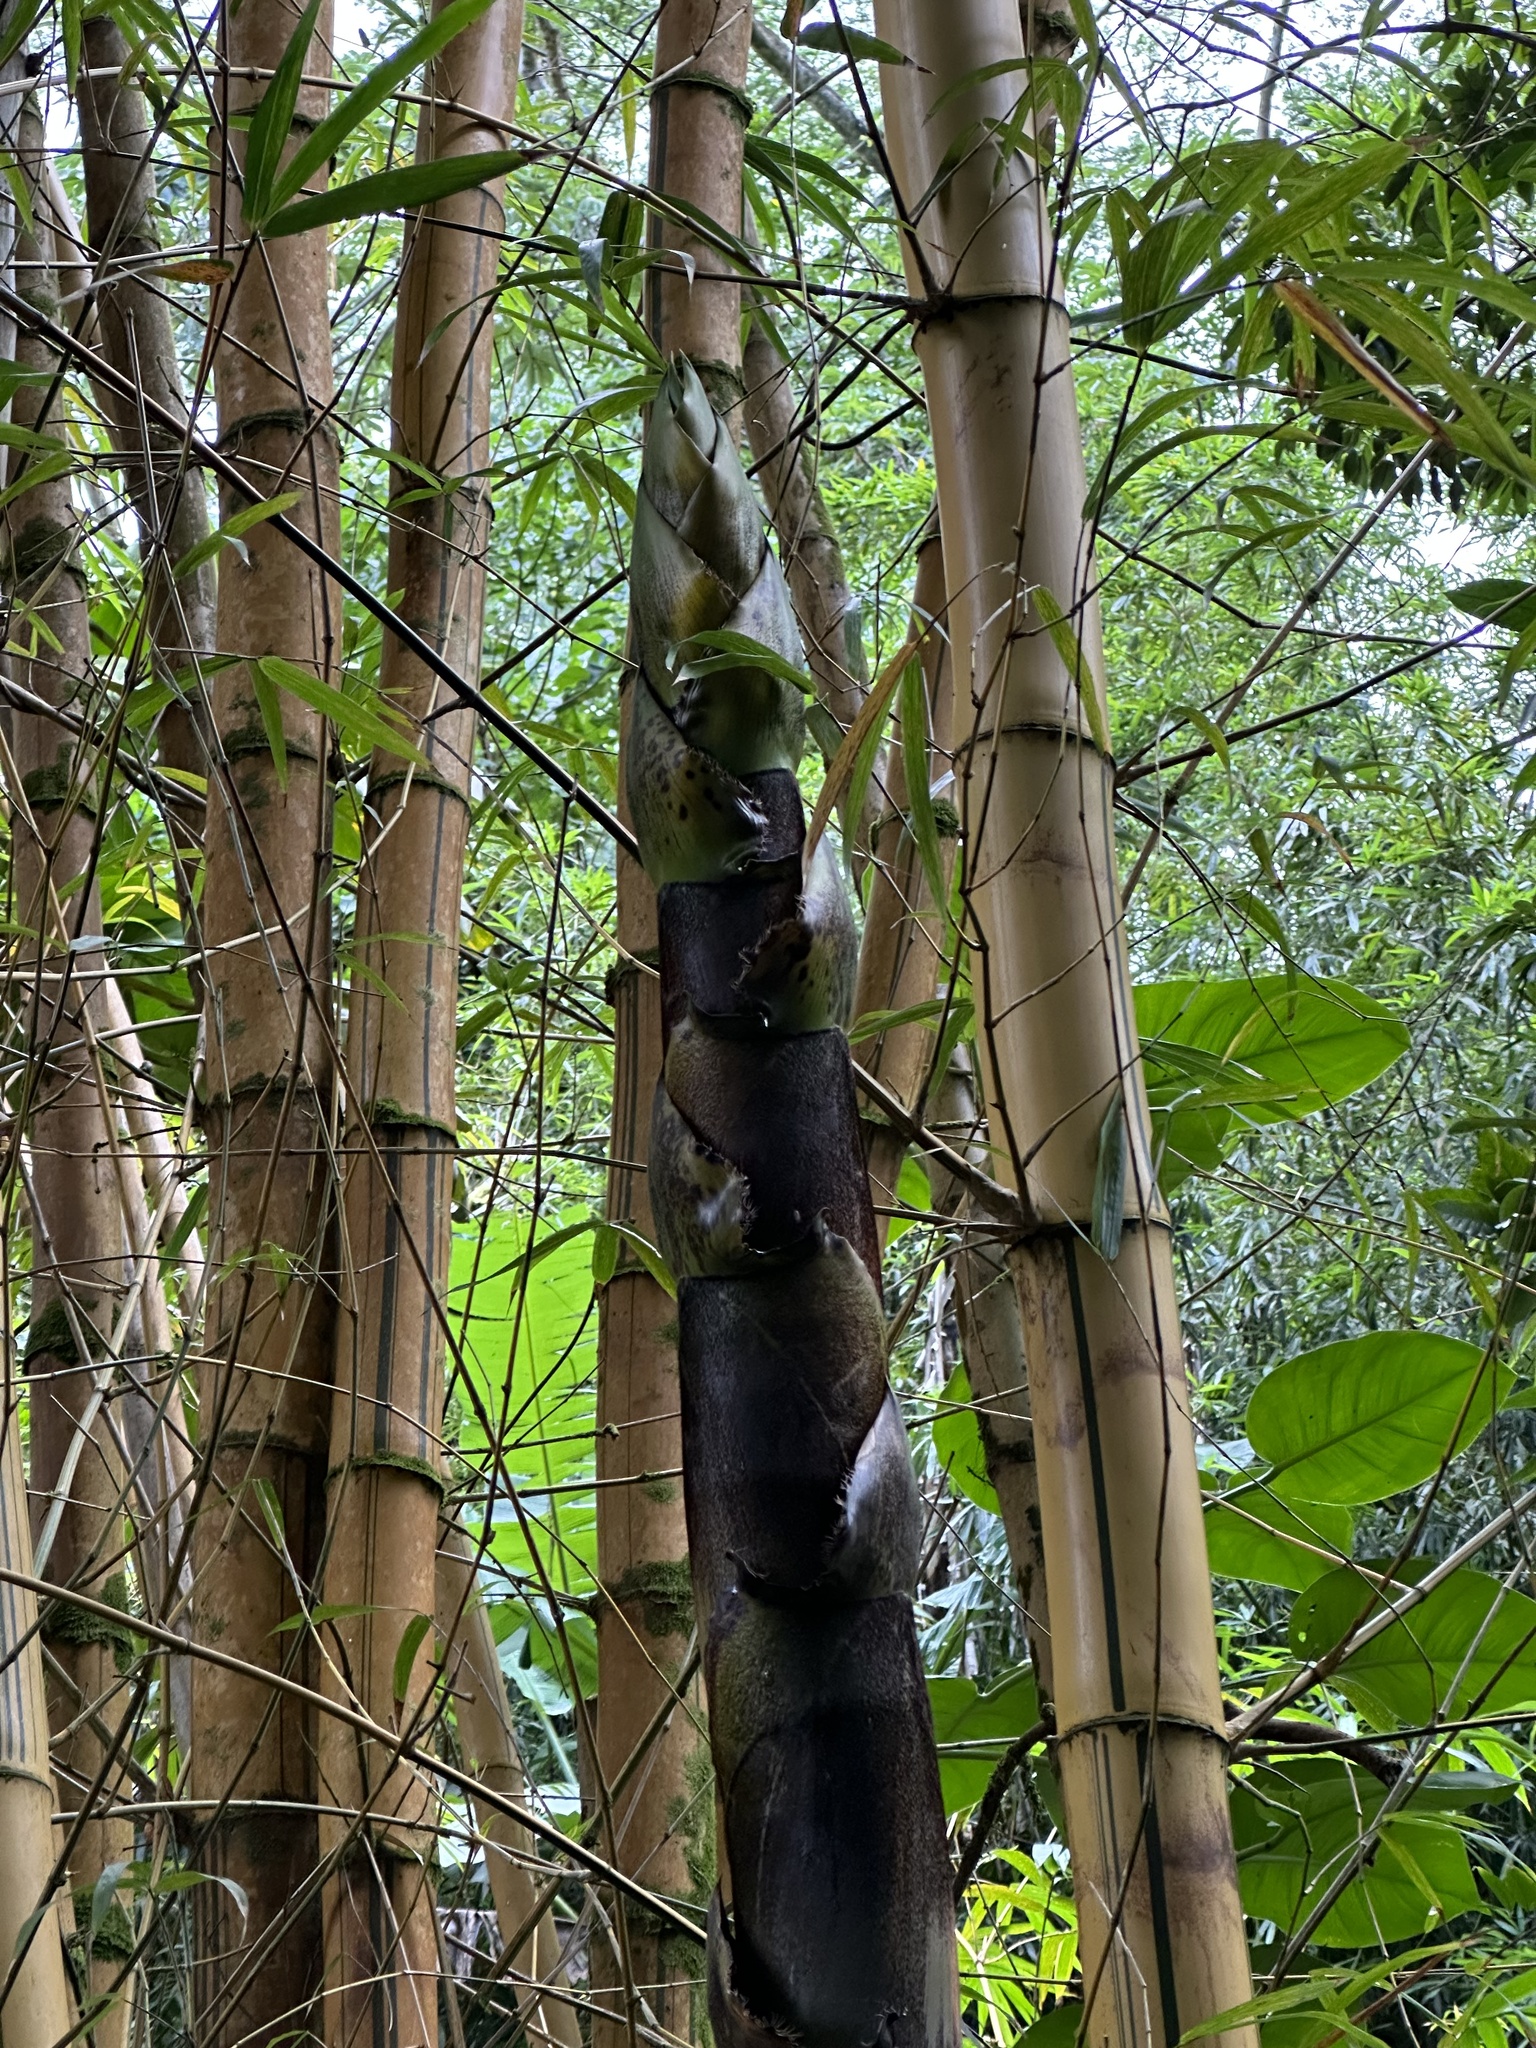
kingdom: Plantae
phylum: Tracheophyta
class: Liliopsida
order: Poales
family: Poaceae
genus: Bambusa
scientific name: Bambusa vulgaris
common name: Common bamboo
